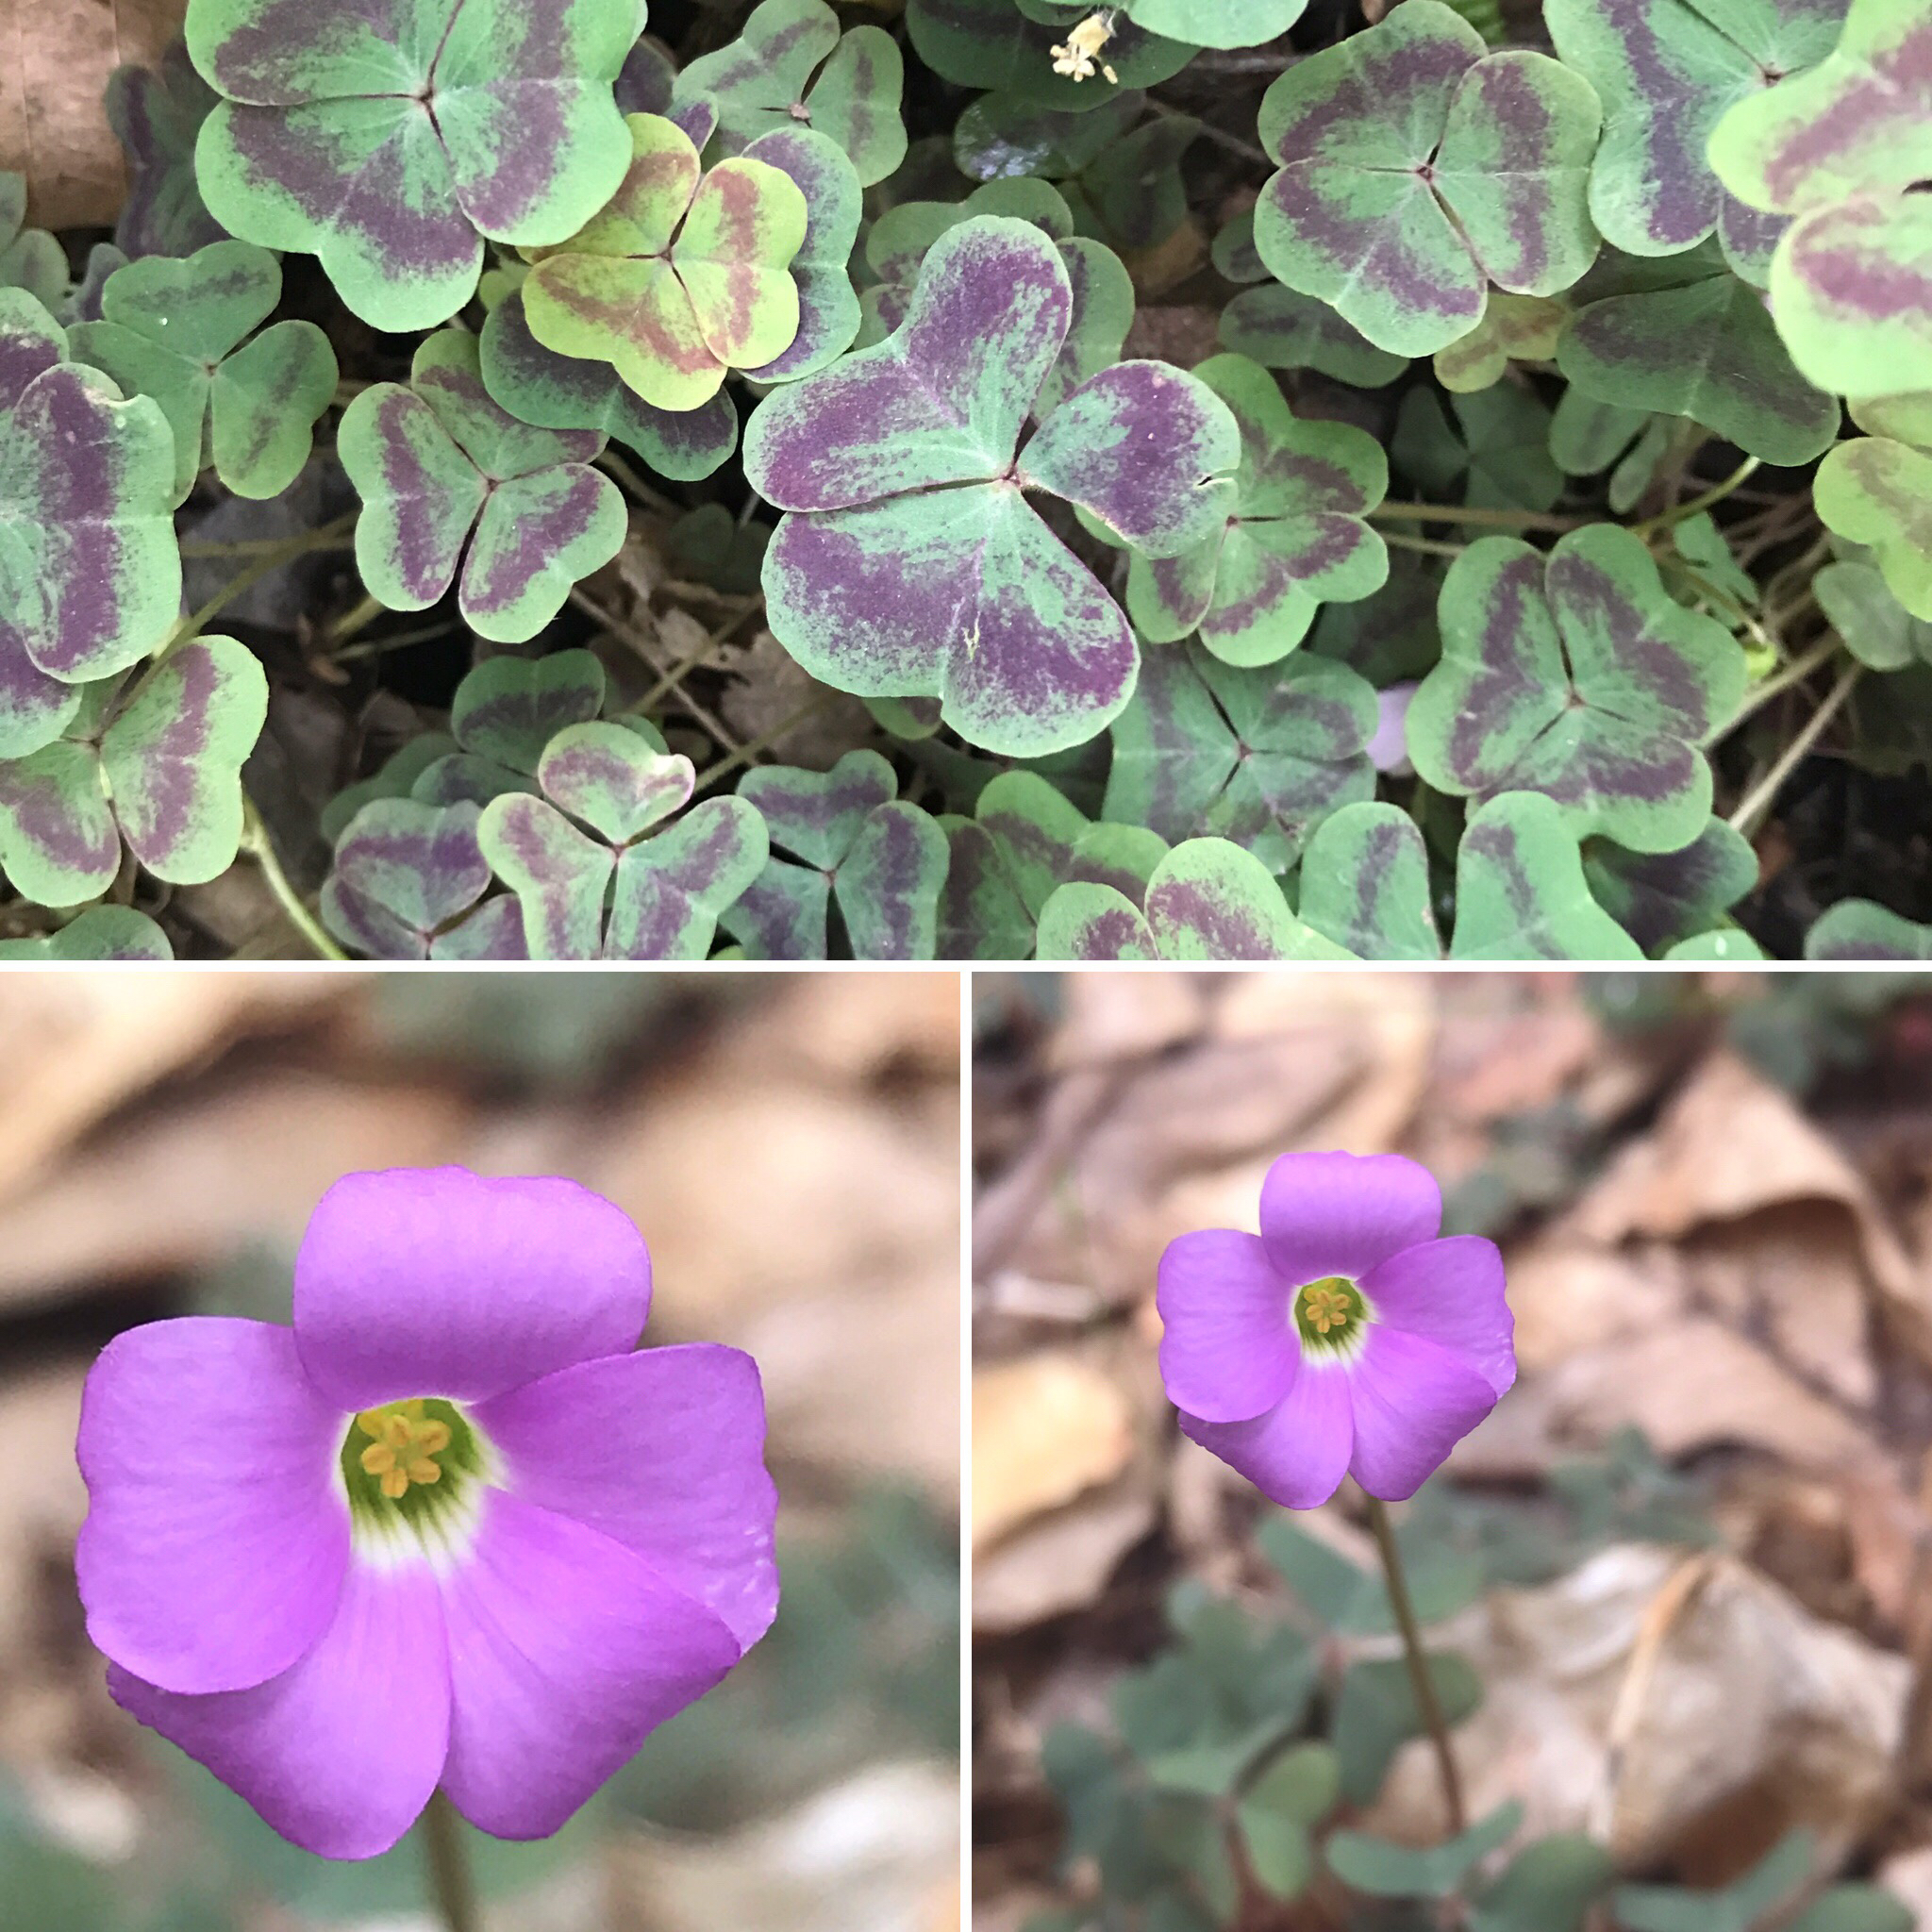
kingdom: Plantae
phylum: Tracheophyta
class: Magnoliopsida
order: Oxalidales
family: Oxalidaceae
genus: Oxalis
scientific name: Oxalis violacea
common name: Violet wood-sorrel
